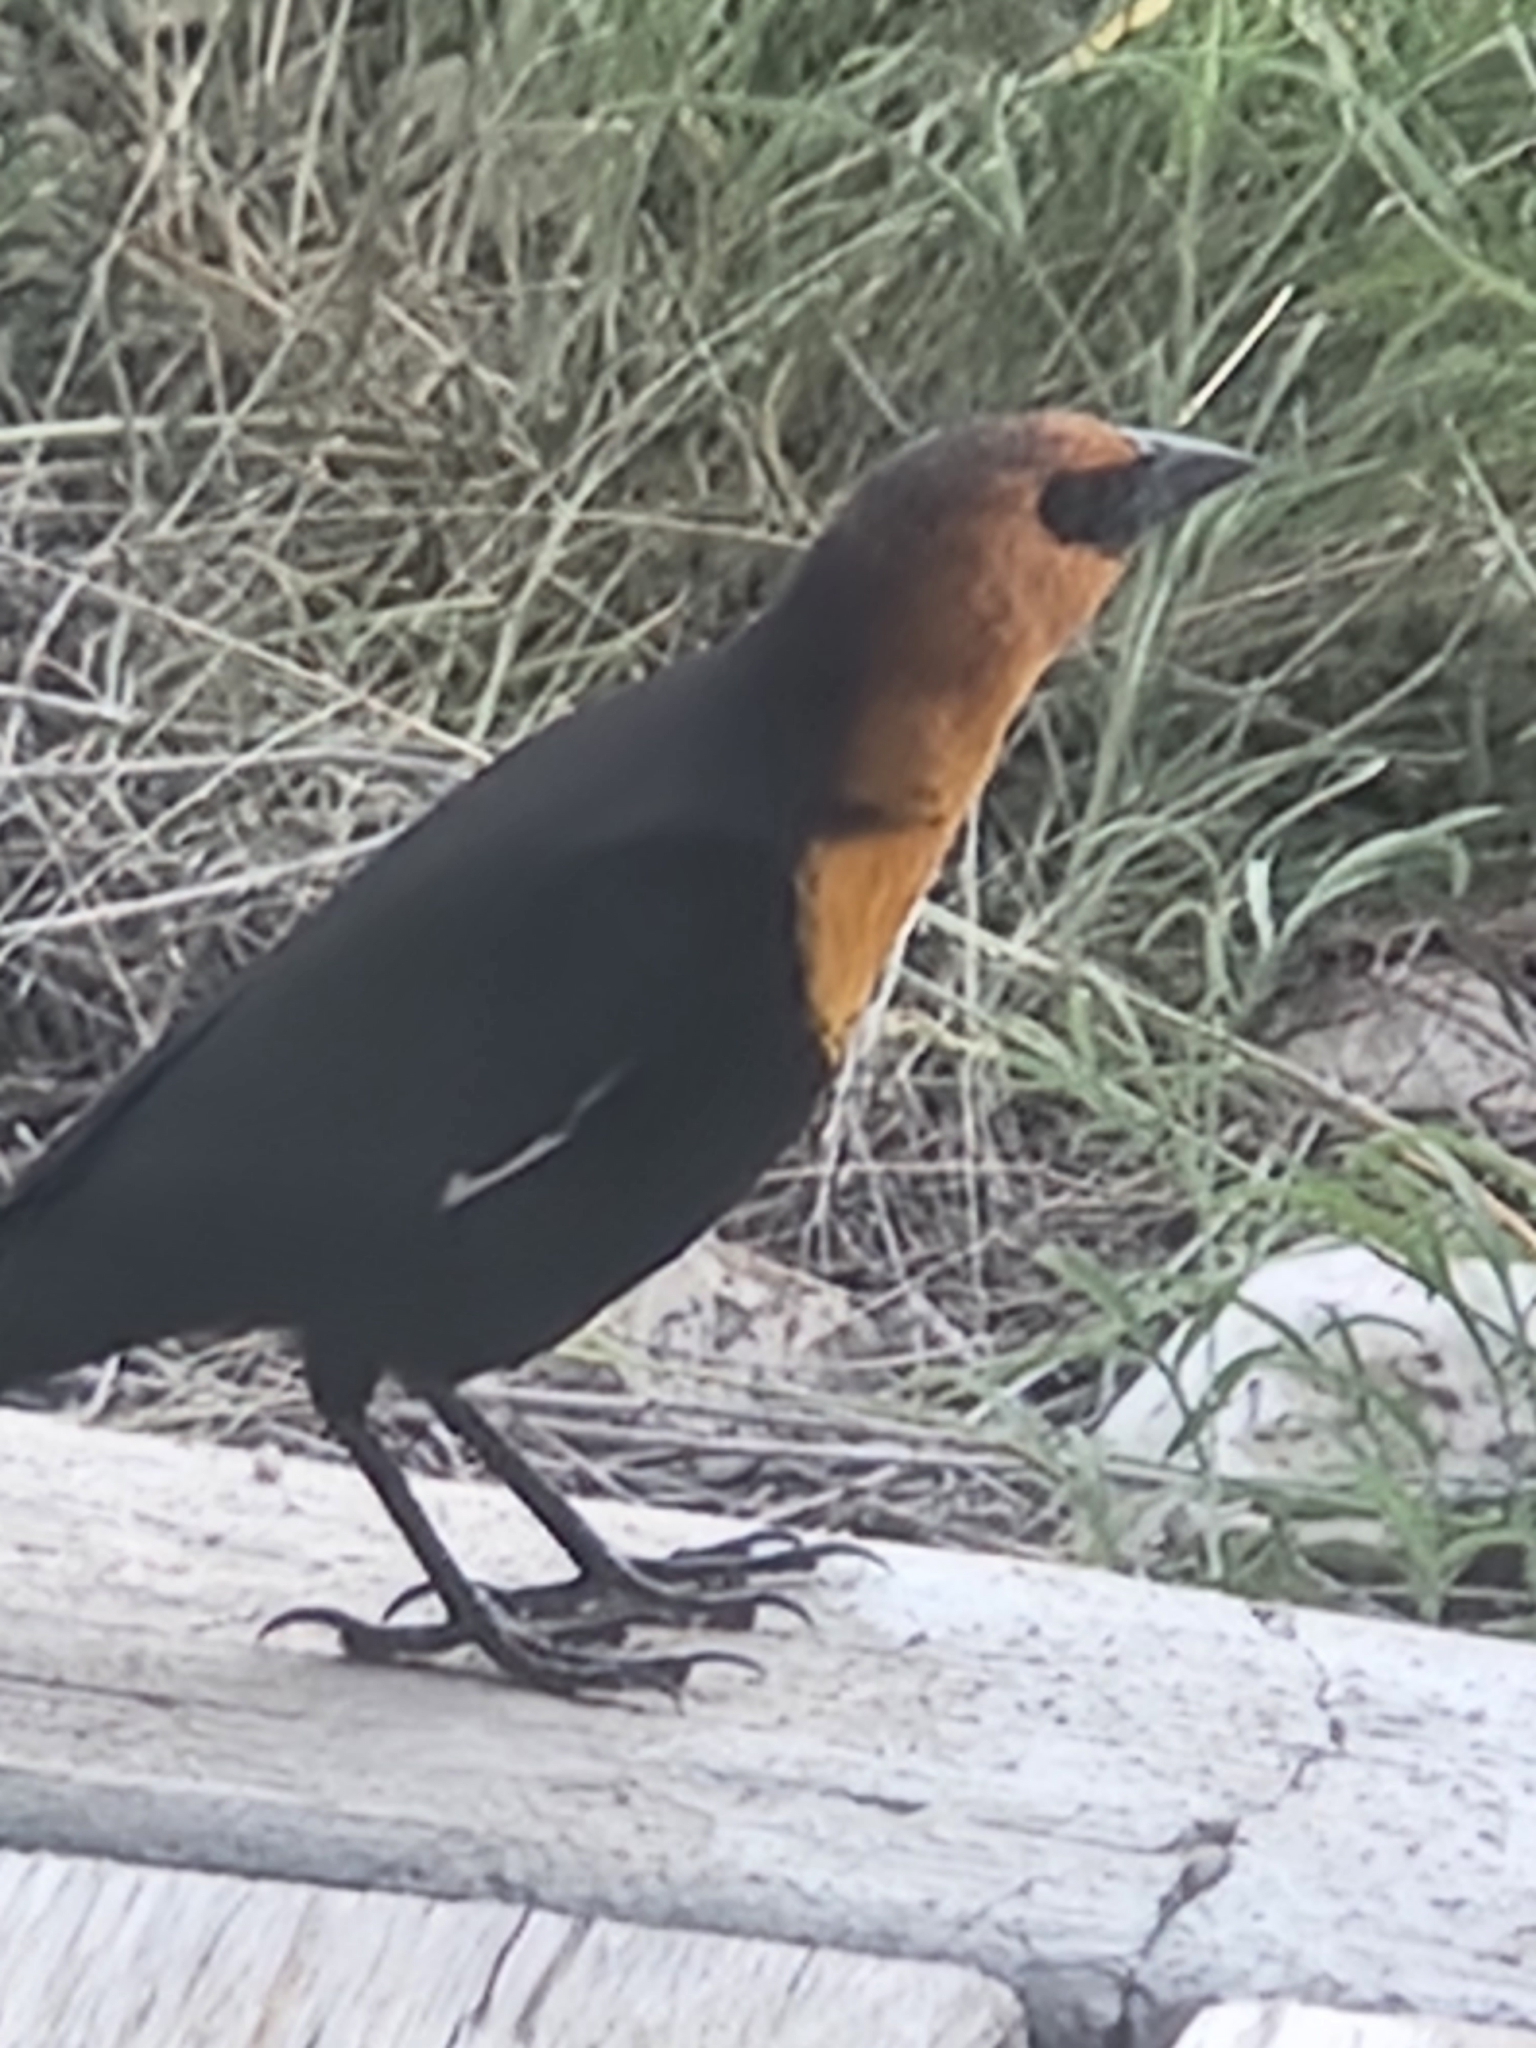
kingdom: Animalia
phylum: Chordata
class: Aves
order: Passeriformes
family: Icteridae
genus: Xanthocephalus
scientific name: Xanthocephalus xanthocephalus
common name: Yellow-headed blackbird
